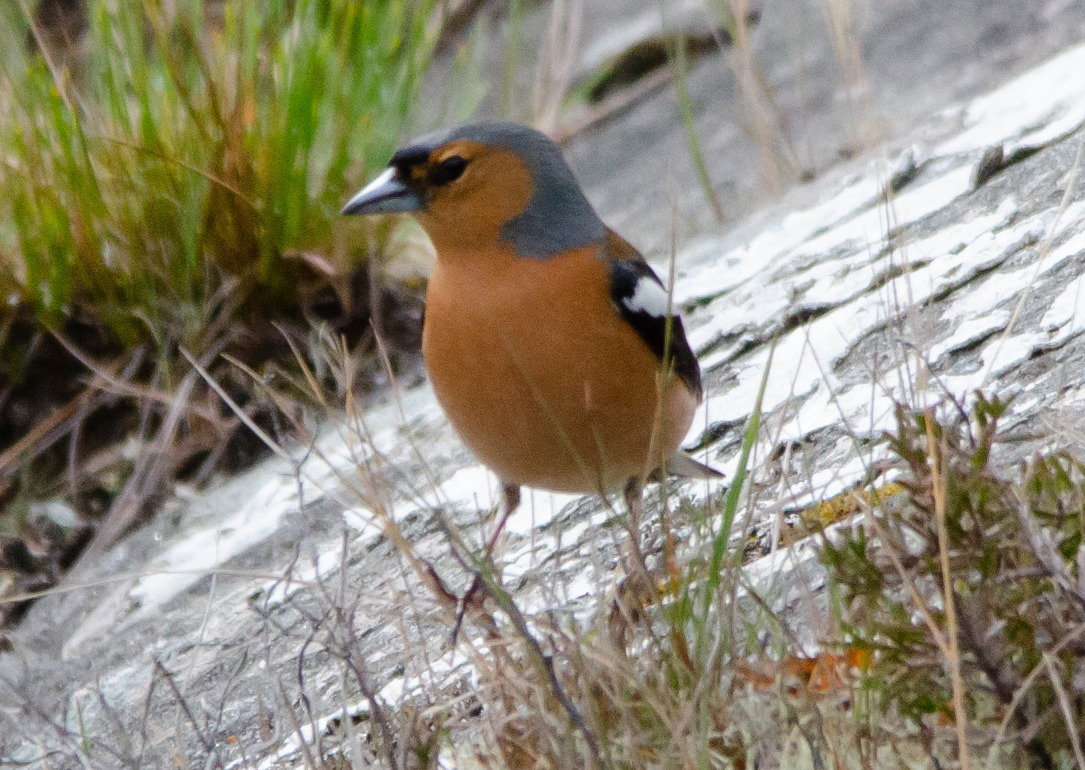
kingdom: Animalia
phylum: Chordata
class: Aves
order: Passeriformes
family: Fringillidae
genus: Fringilla
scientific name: Fringilla coelebs
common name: Common chaffinch
